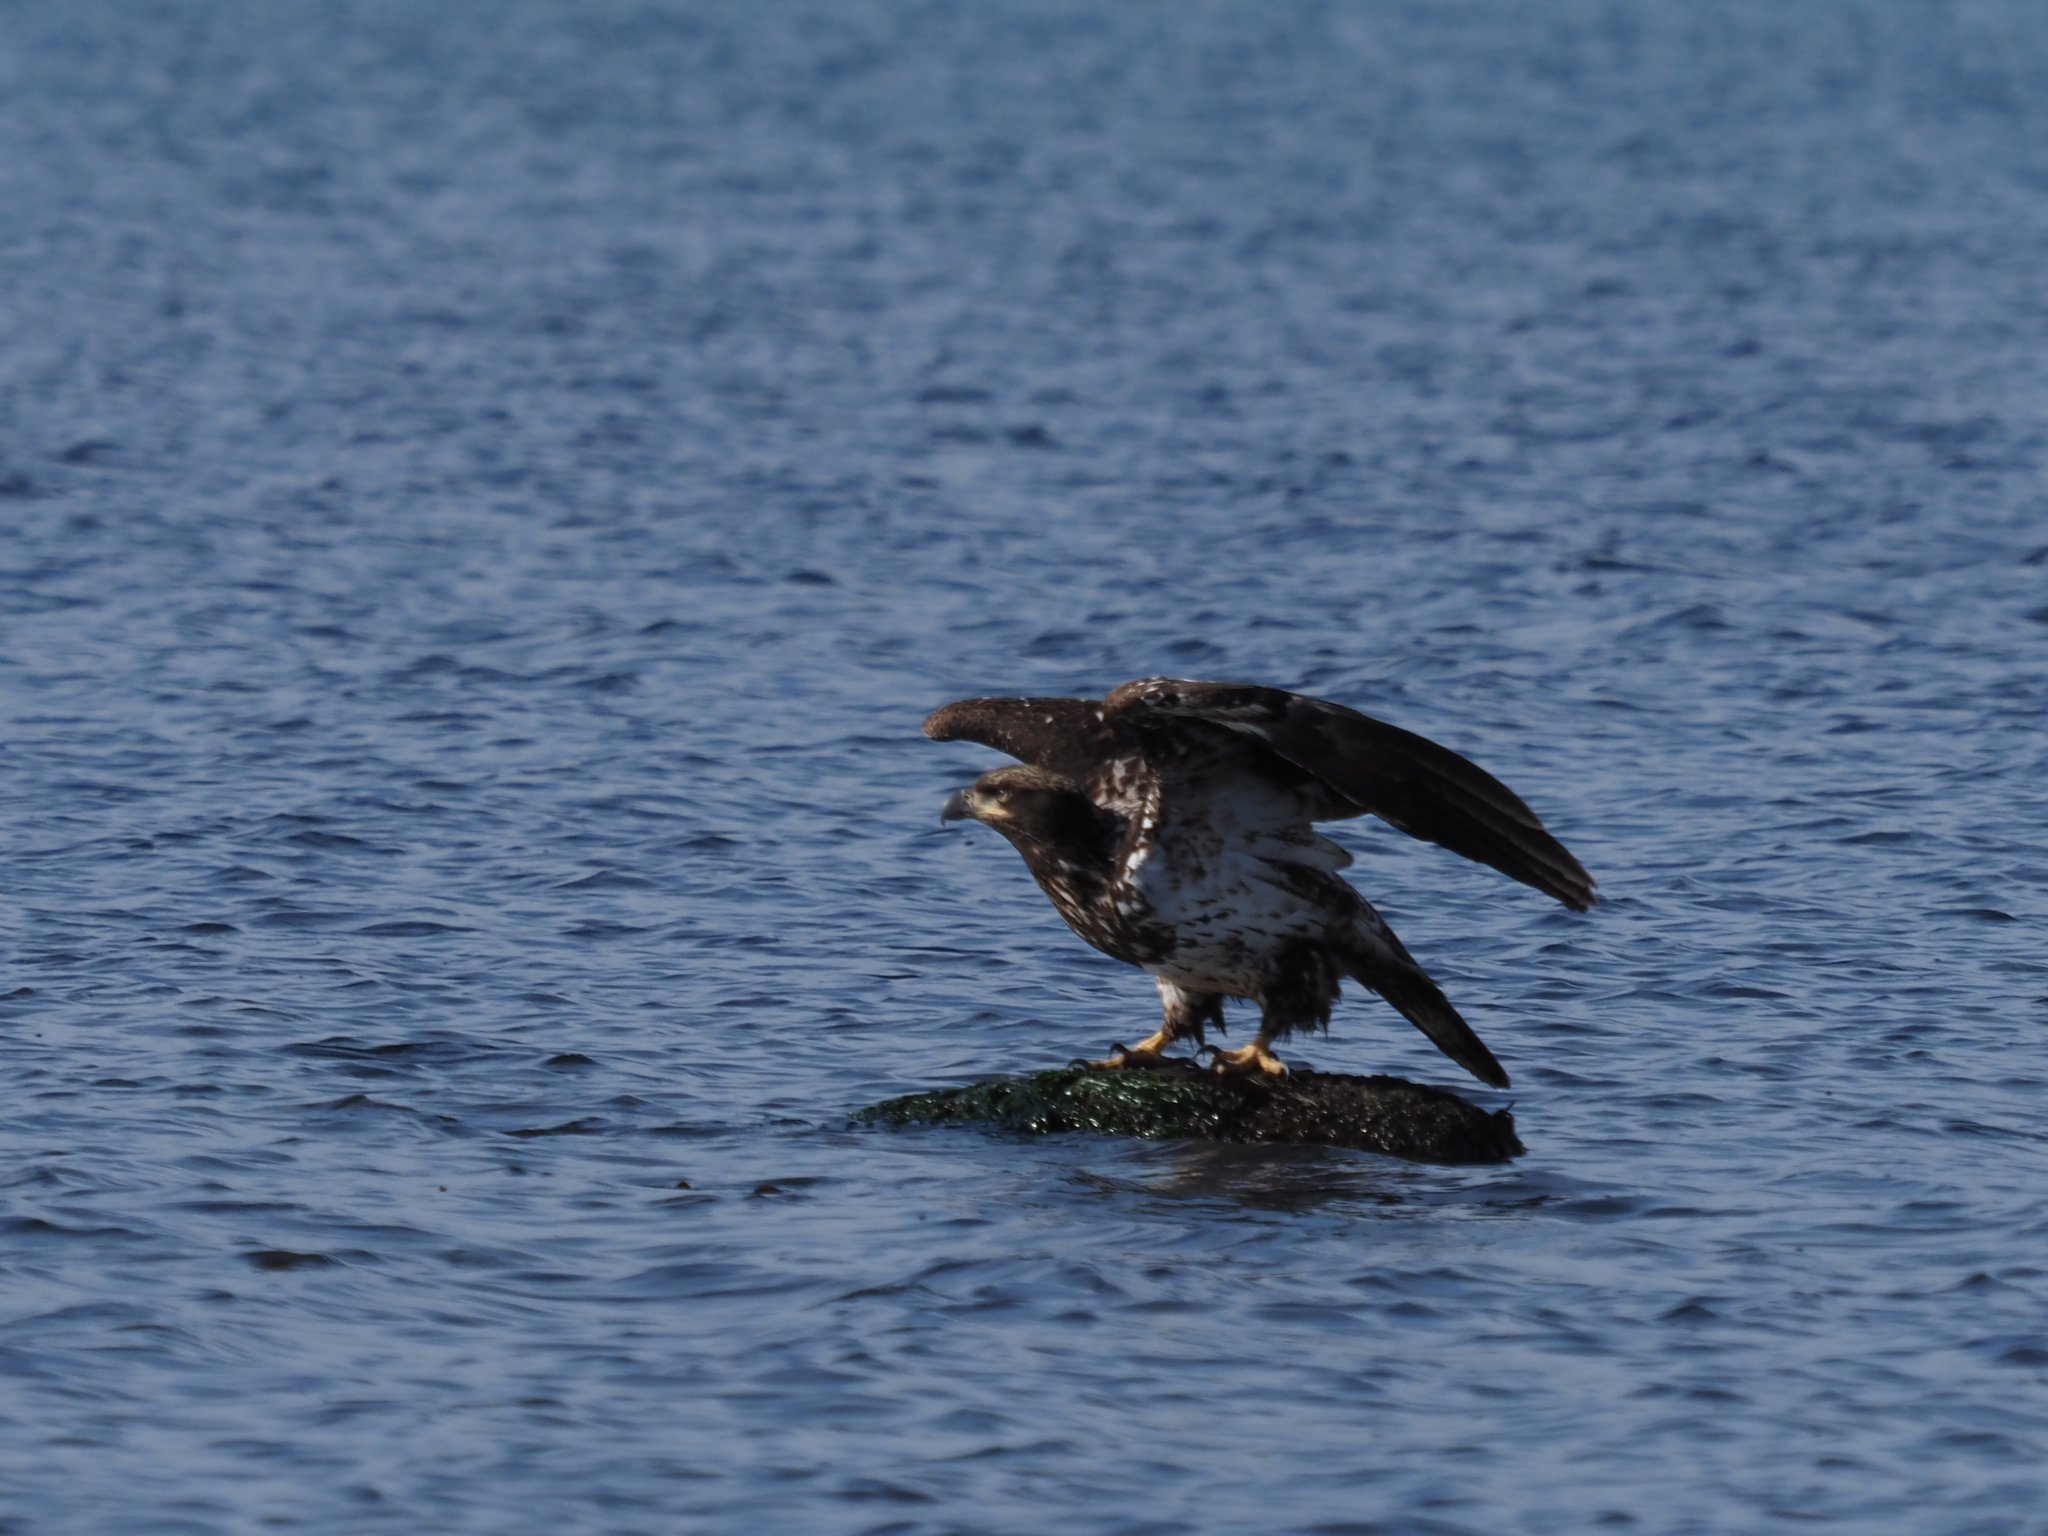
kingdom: Animalia
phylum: Chordata
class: Aves
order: Accipitriformes
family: Accipitridae
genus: Haliaeetus
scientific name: Haliaeetus leucocephalus
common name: Bald eagle
